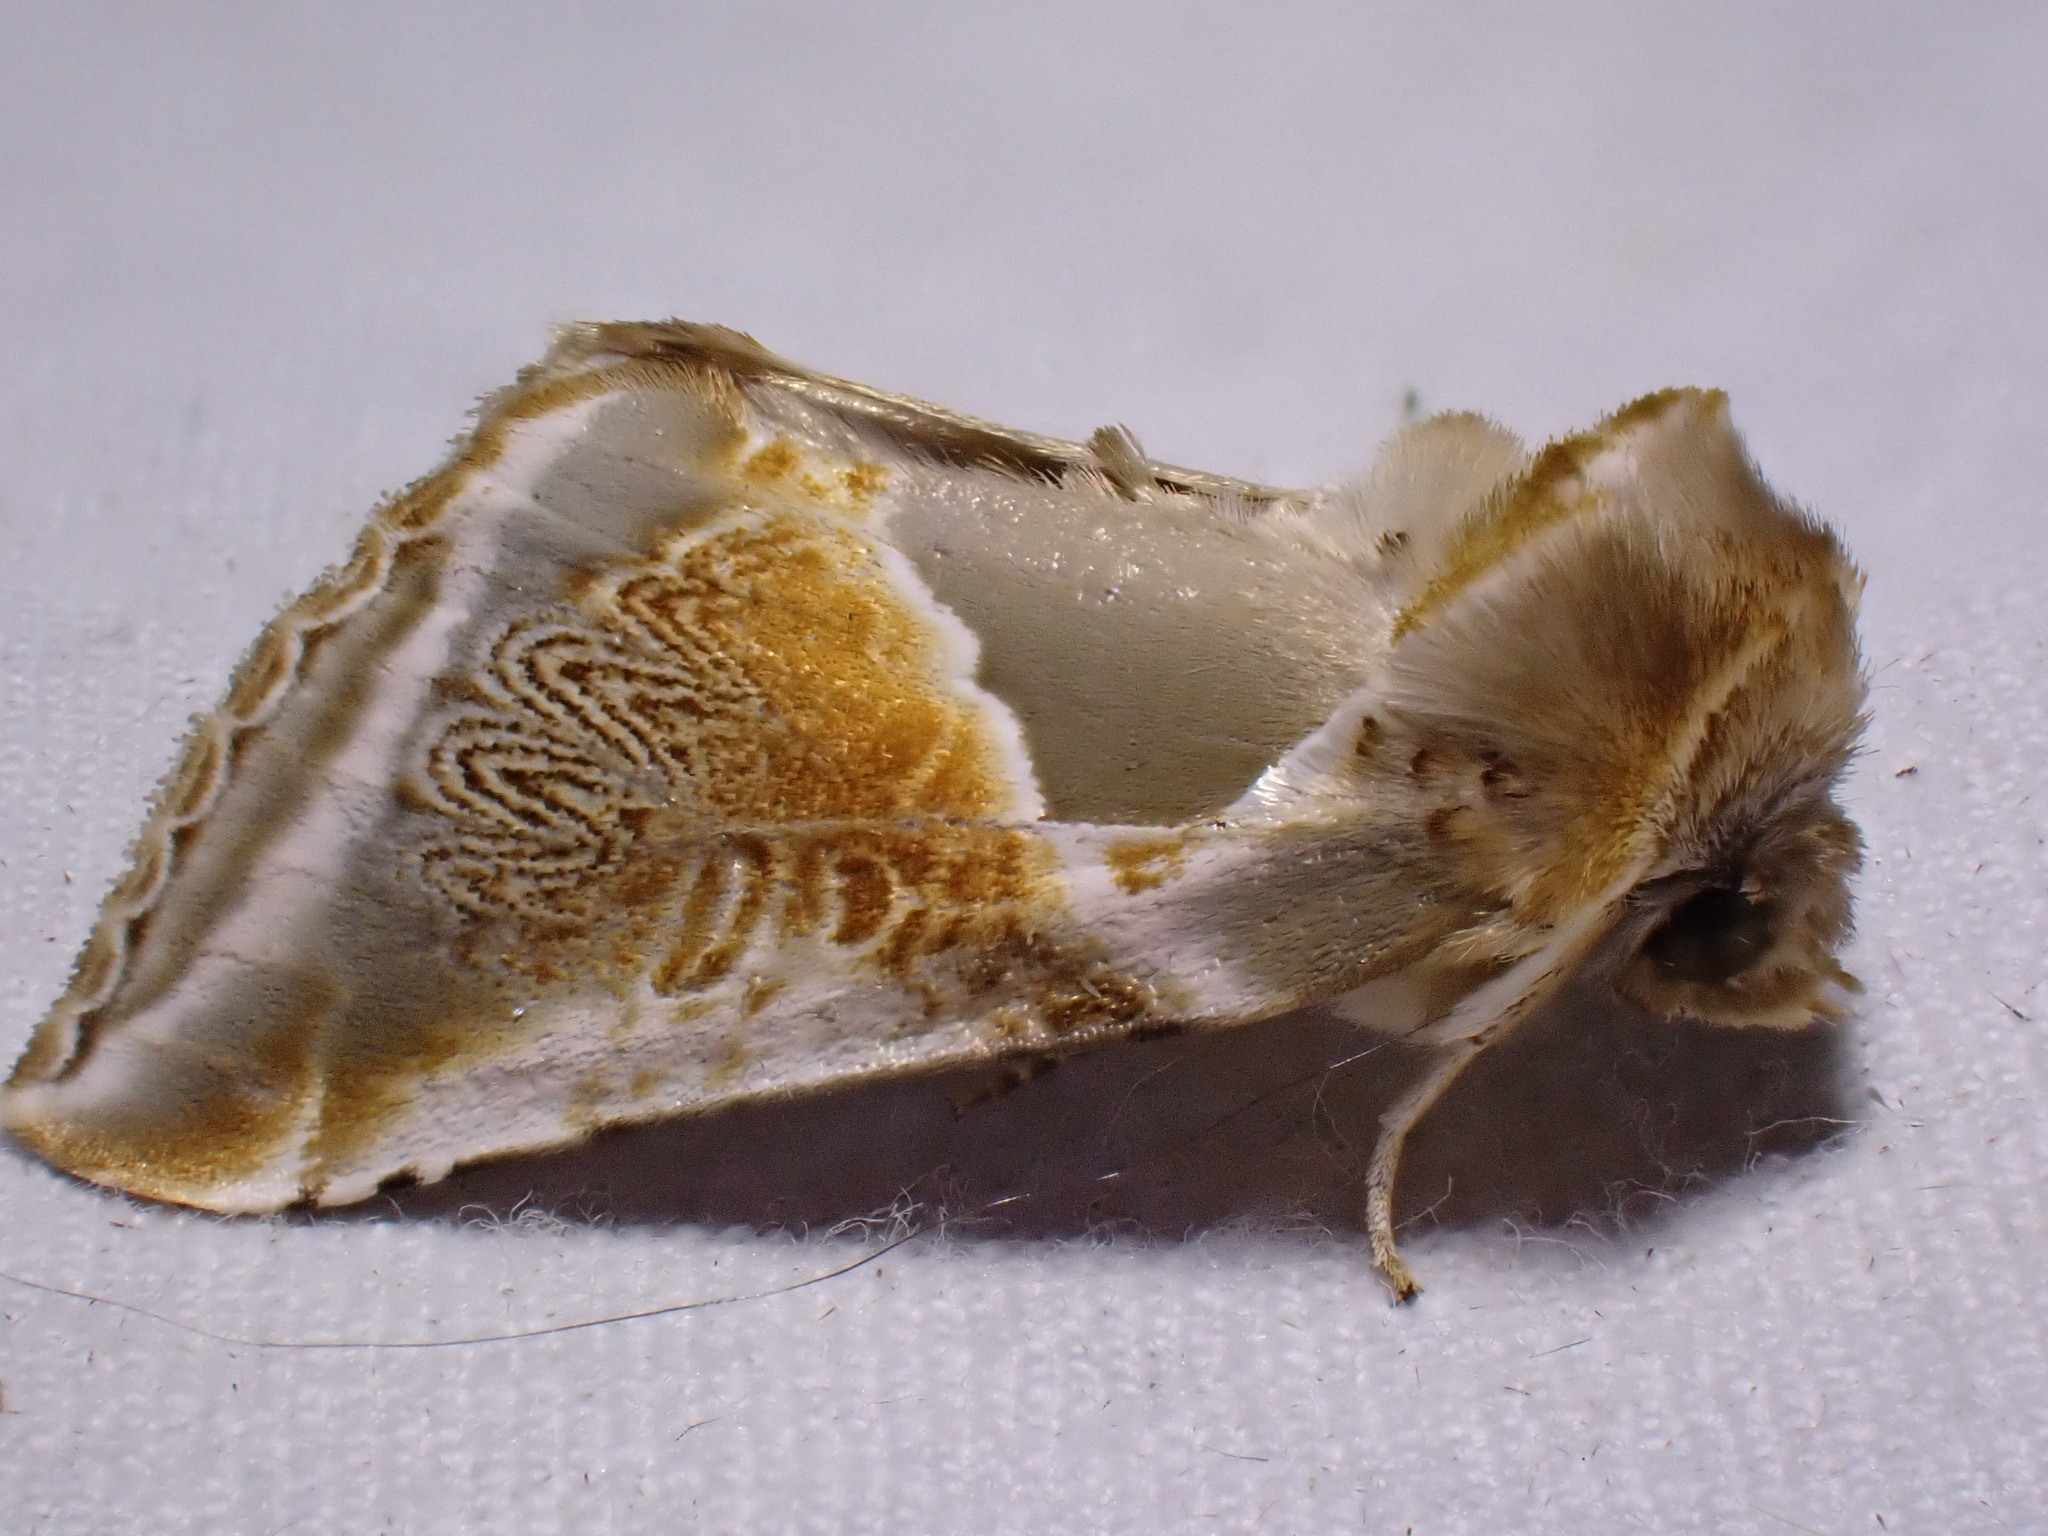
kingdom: Animalia
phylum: Arthropoda
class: Insecta
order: Lepidoptera
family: Drepanidae
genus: Habrosyne
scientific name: Habrosyne pyritoides
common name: Buff arches
